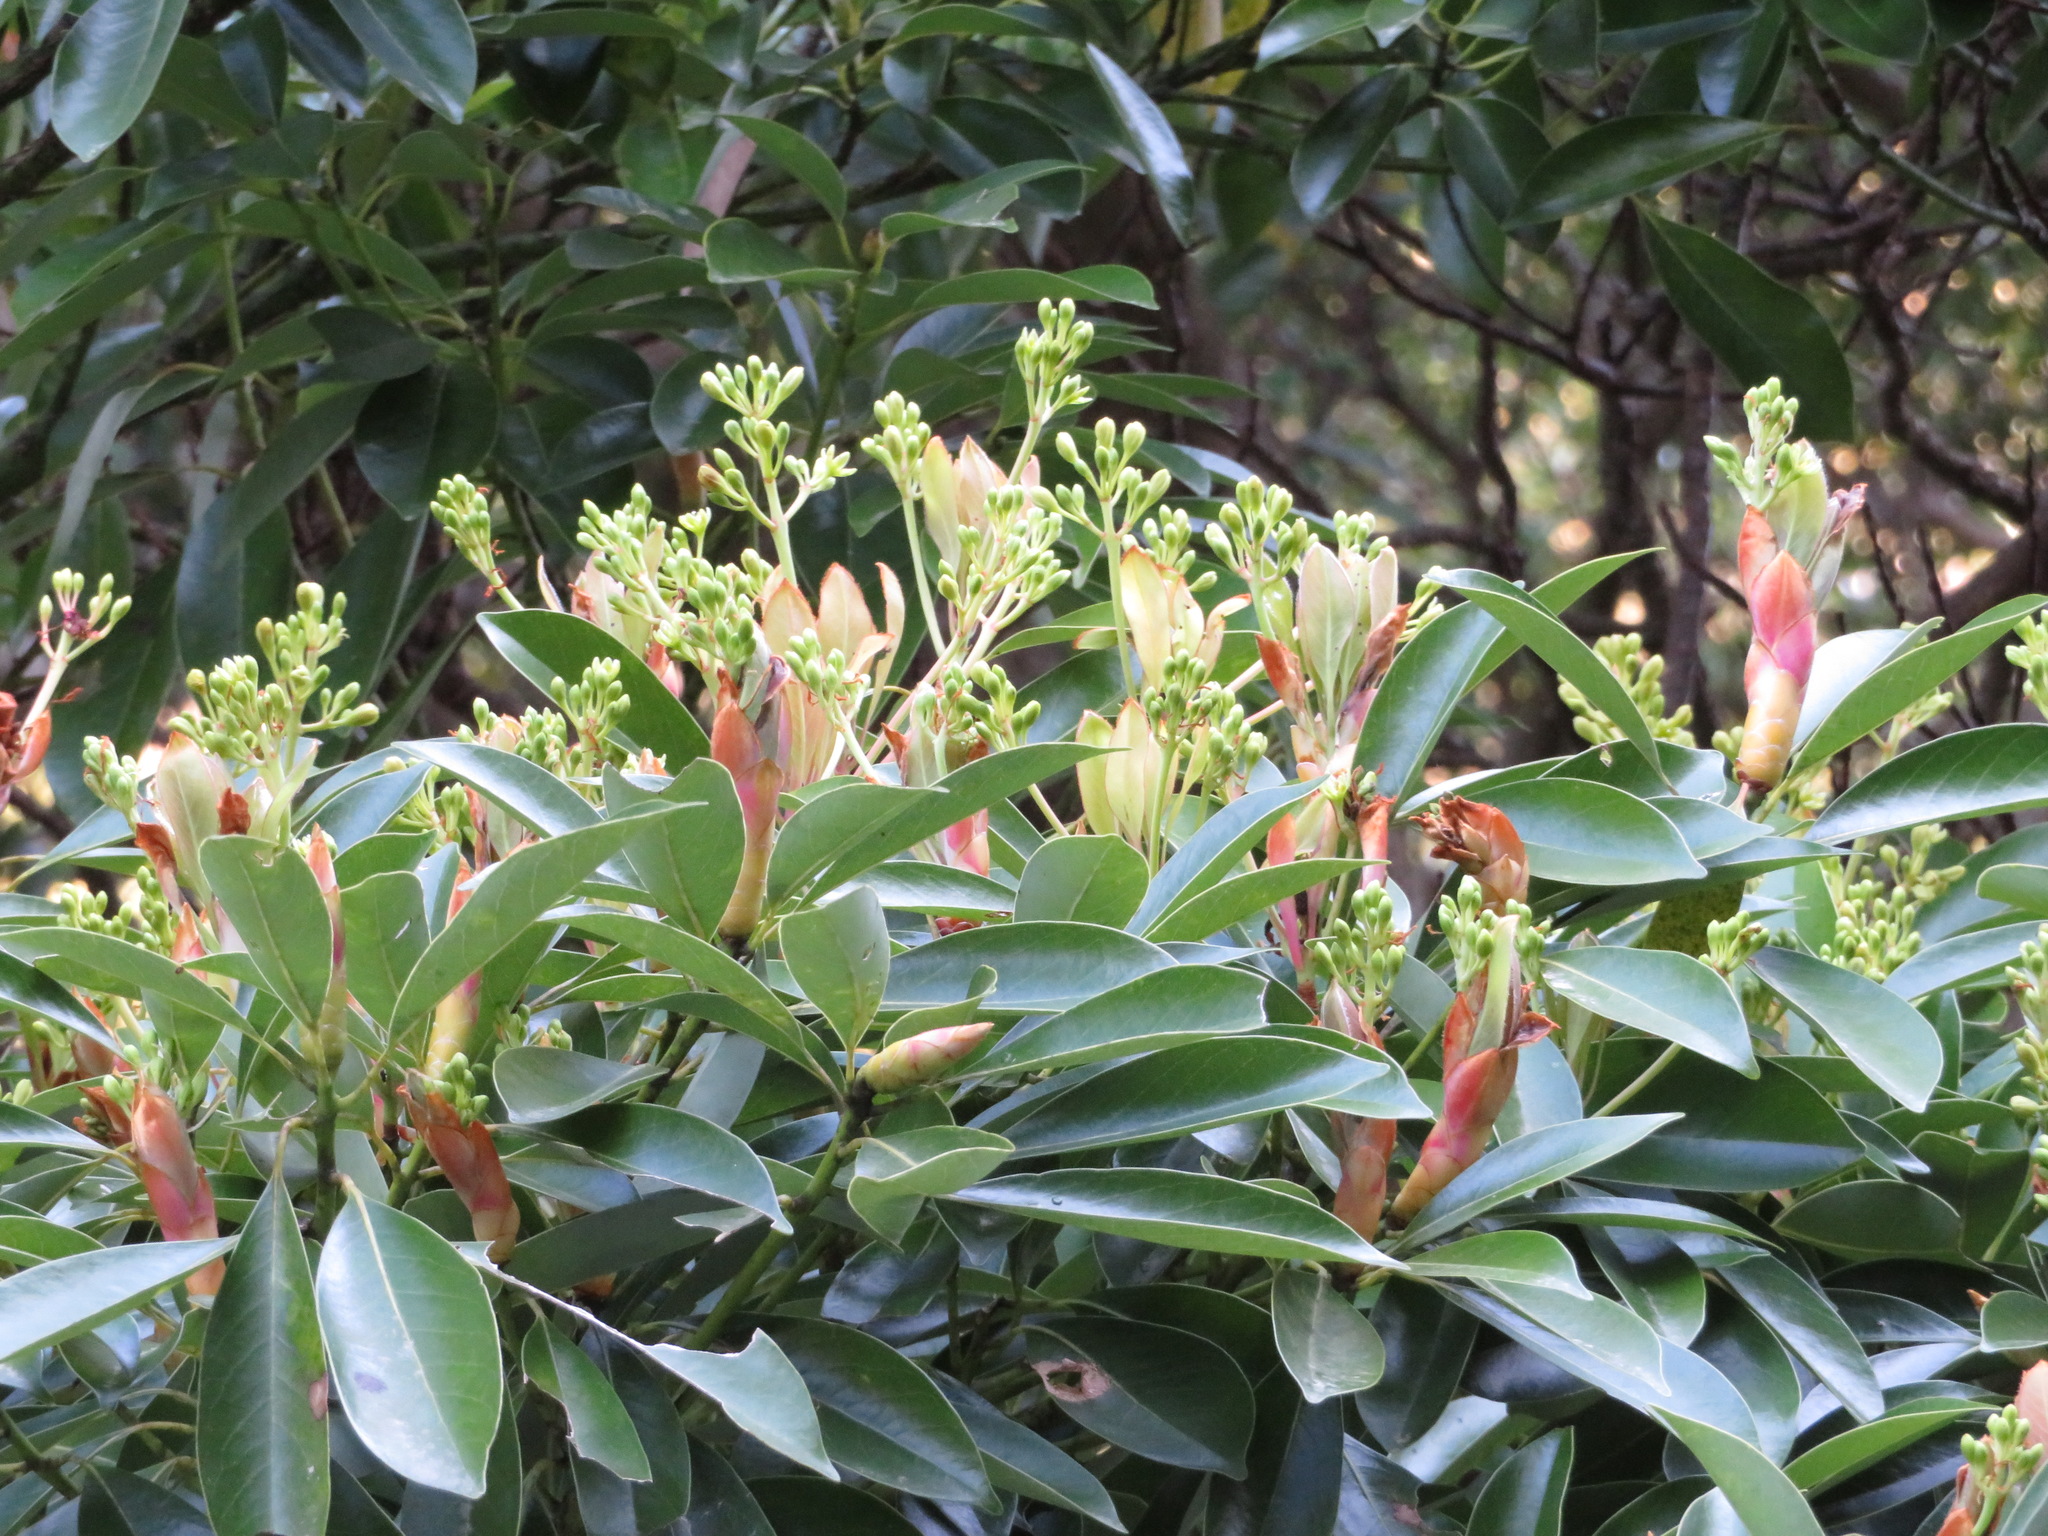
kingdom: Plantae
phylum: Tracheophyta
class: Magnoliopsida
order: Laurales
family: Lauraceae
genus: Machilus
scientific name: Machilus thunbergii
